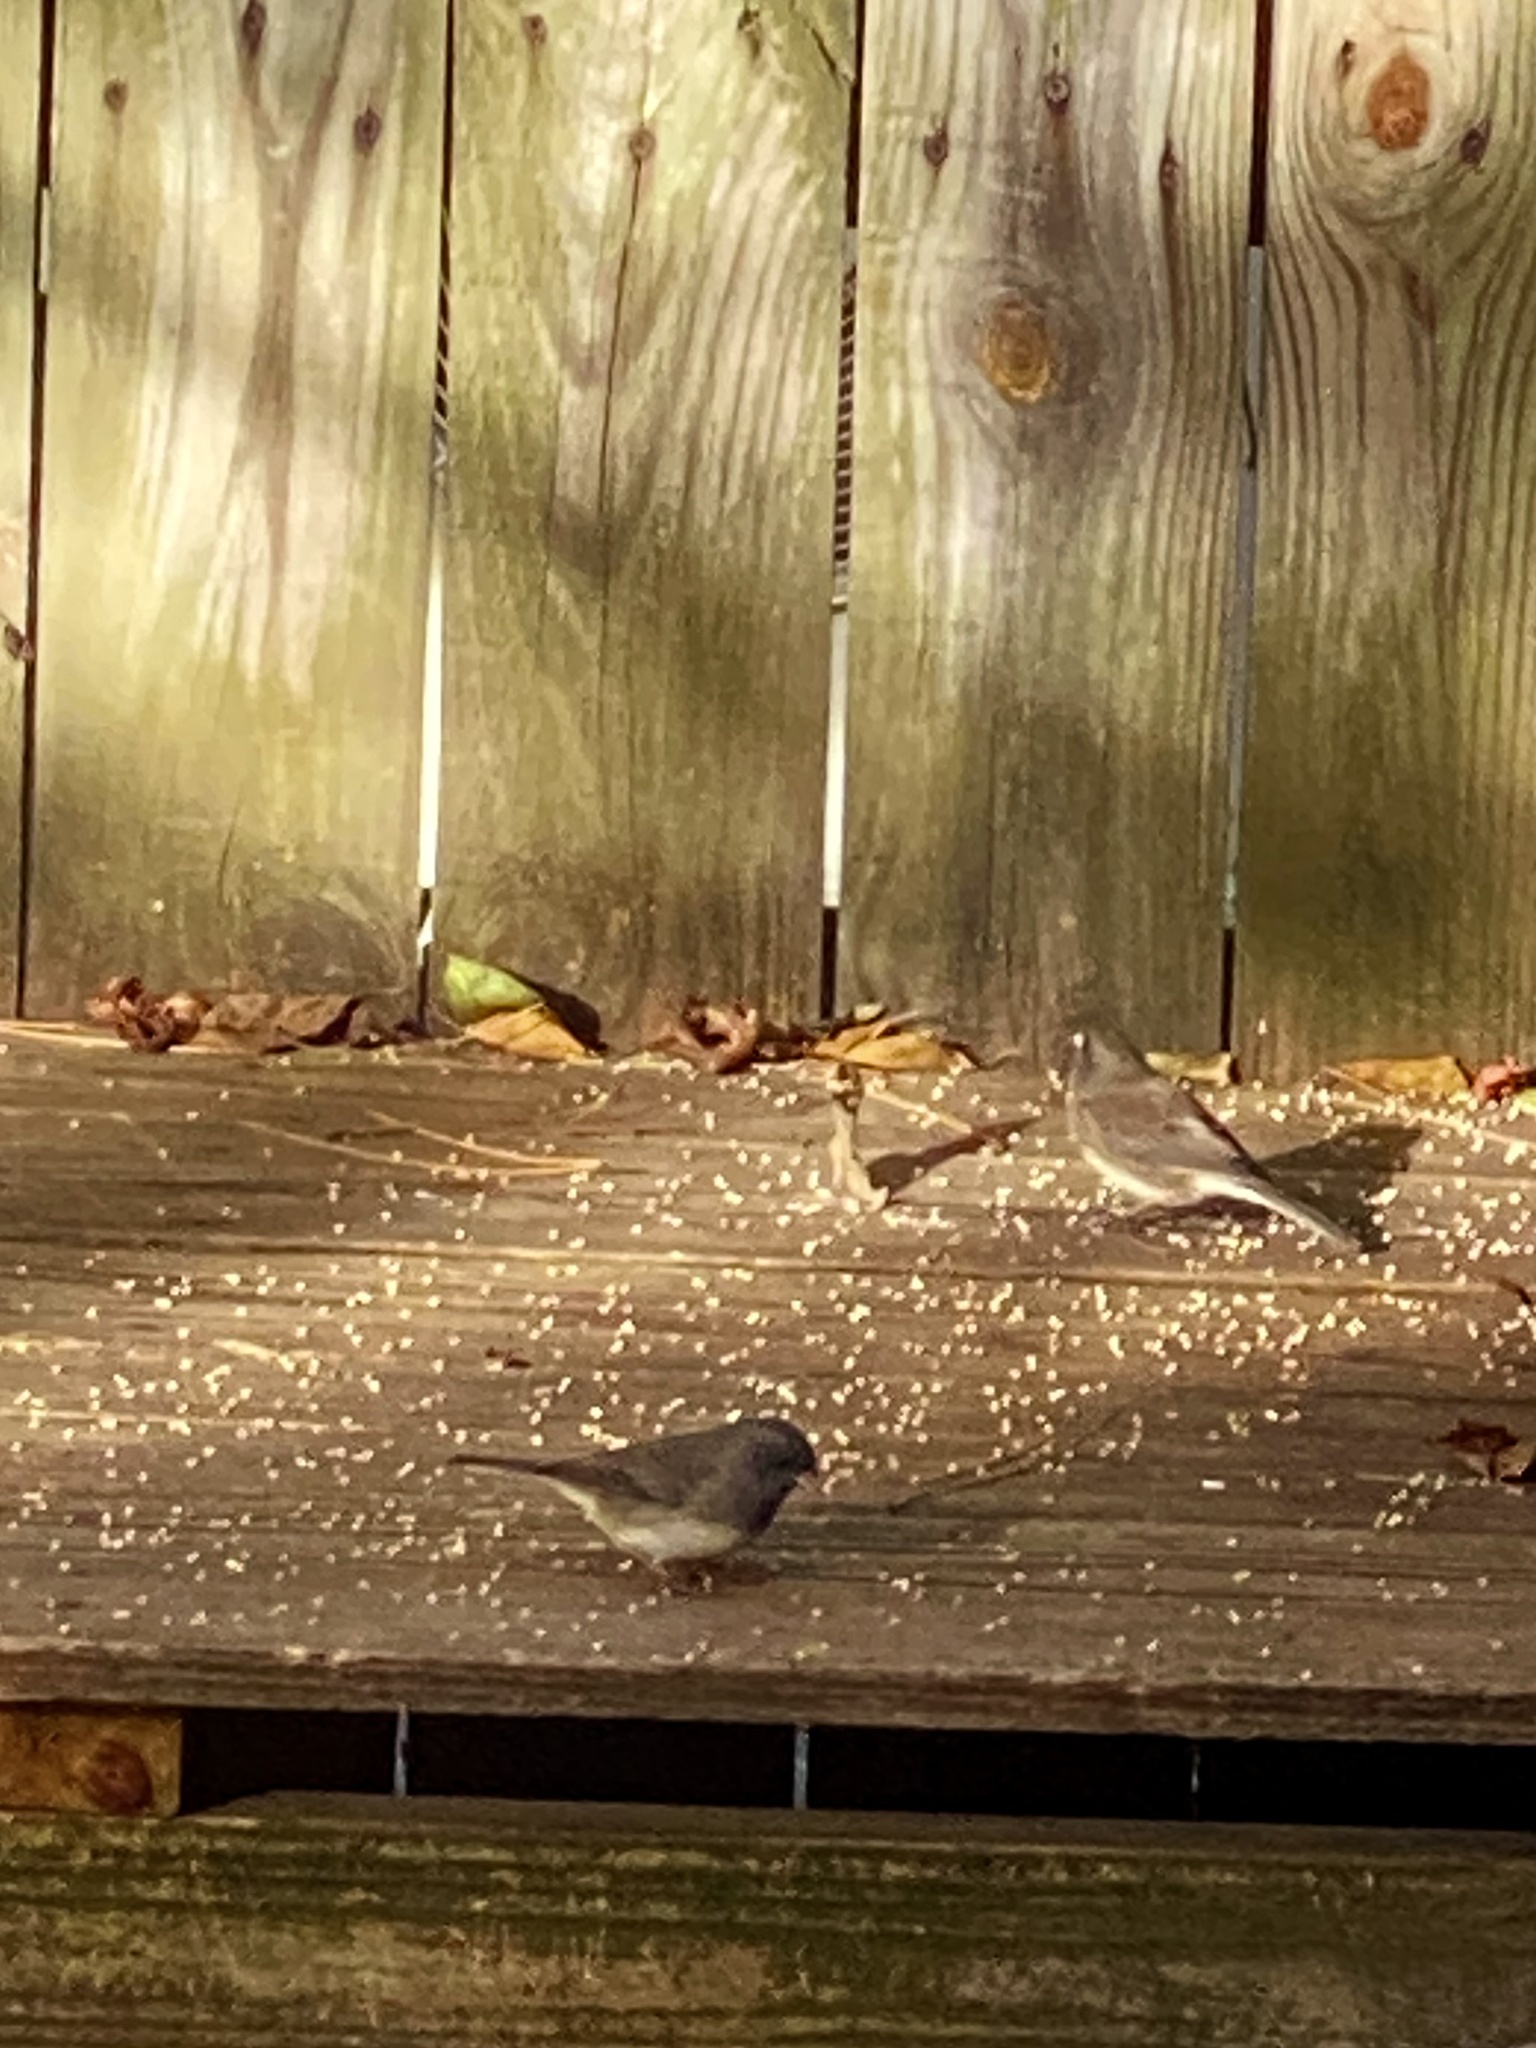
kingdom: Animalia
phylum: Chordata
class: Aves
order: Passeriformes
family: Passerellidae
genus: Junco
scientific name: Junco hyemalis
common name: Dark-eyed junco
